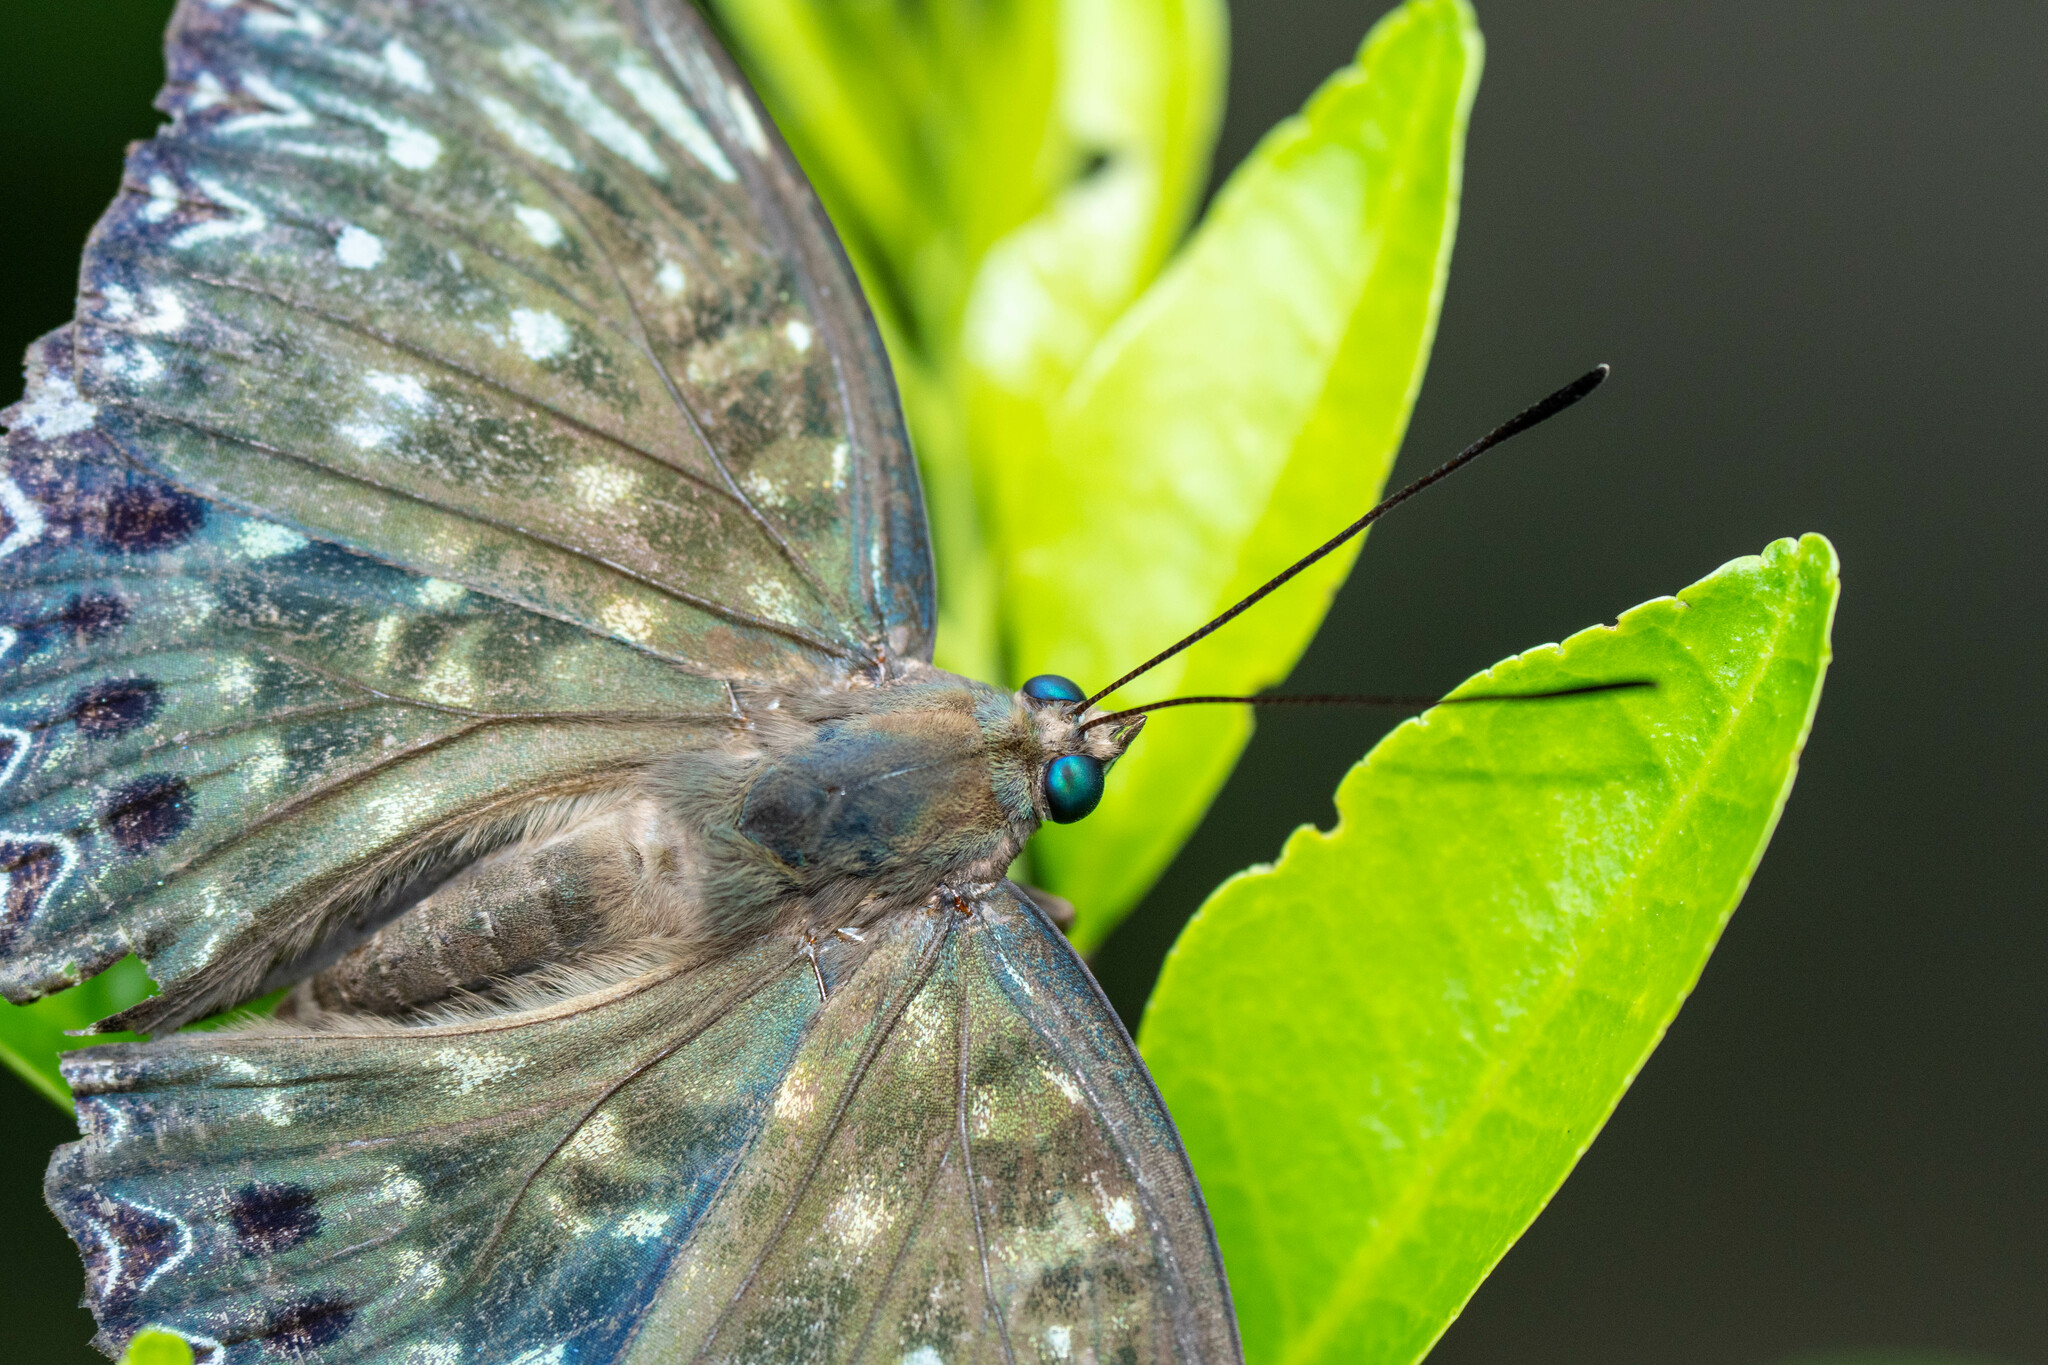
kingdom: Animalia
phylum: Arthropoda
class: Insecta
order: Lepidoptera
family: Nymphalidae
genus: Dichorragia
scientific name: Dichorragia nesimachus
